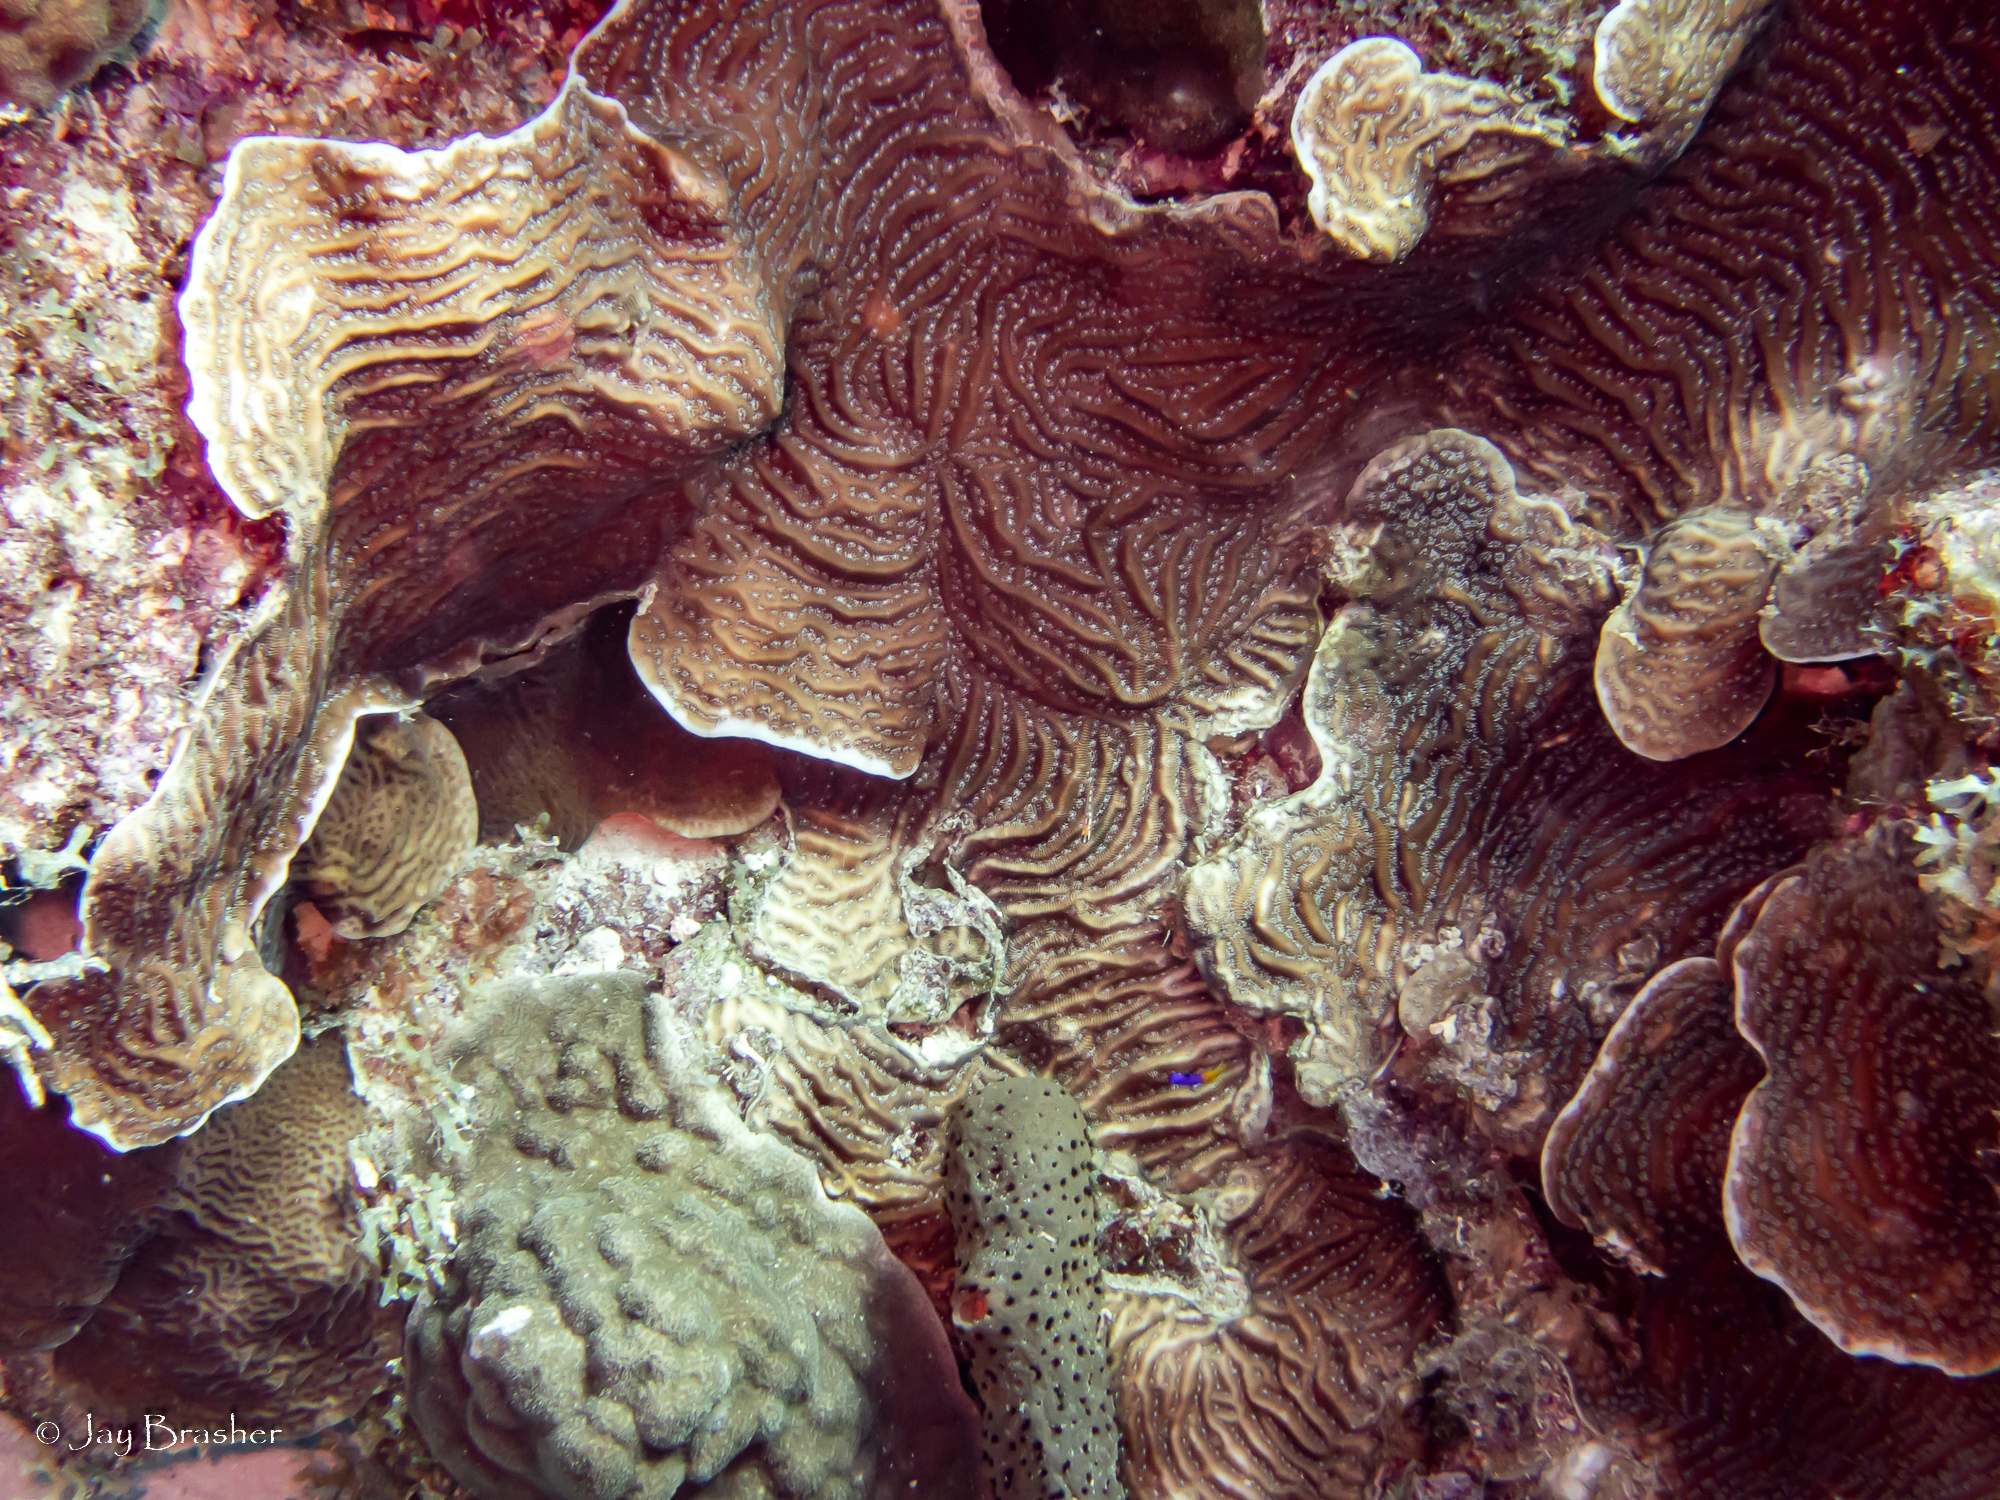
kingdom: Animalia
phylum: Cnidaria
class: Anthozoa
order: Scleractinia
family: Agariciidae
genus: Agaricia
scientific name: Agaricia lamarcki
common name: Lamarck's sheet coral
